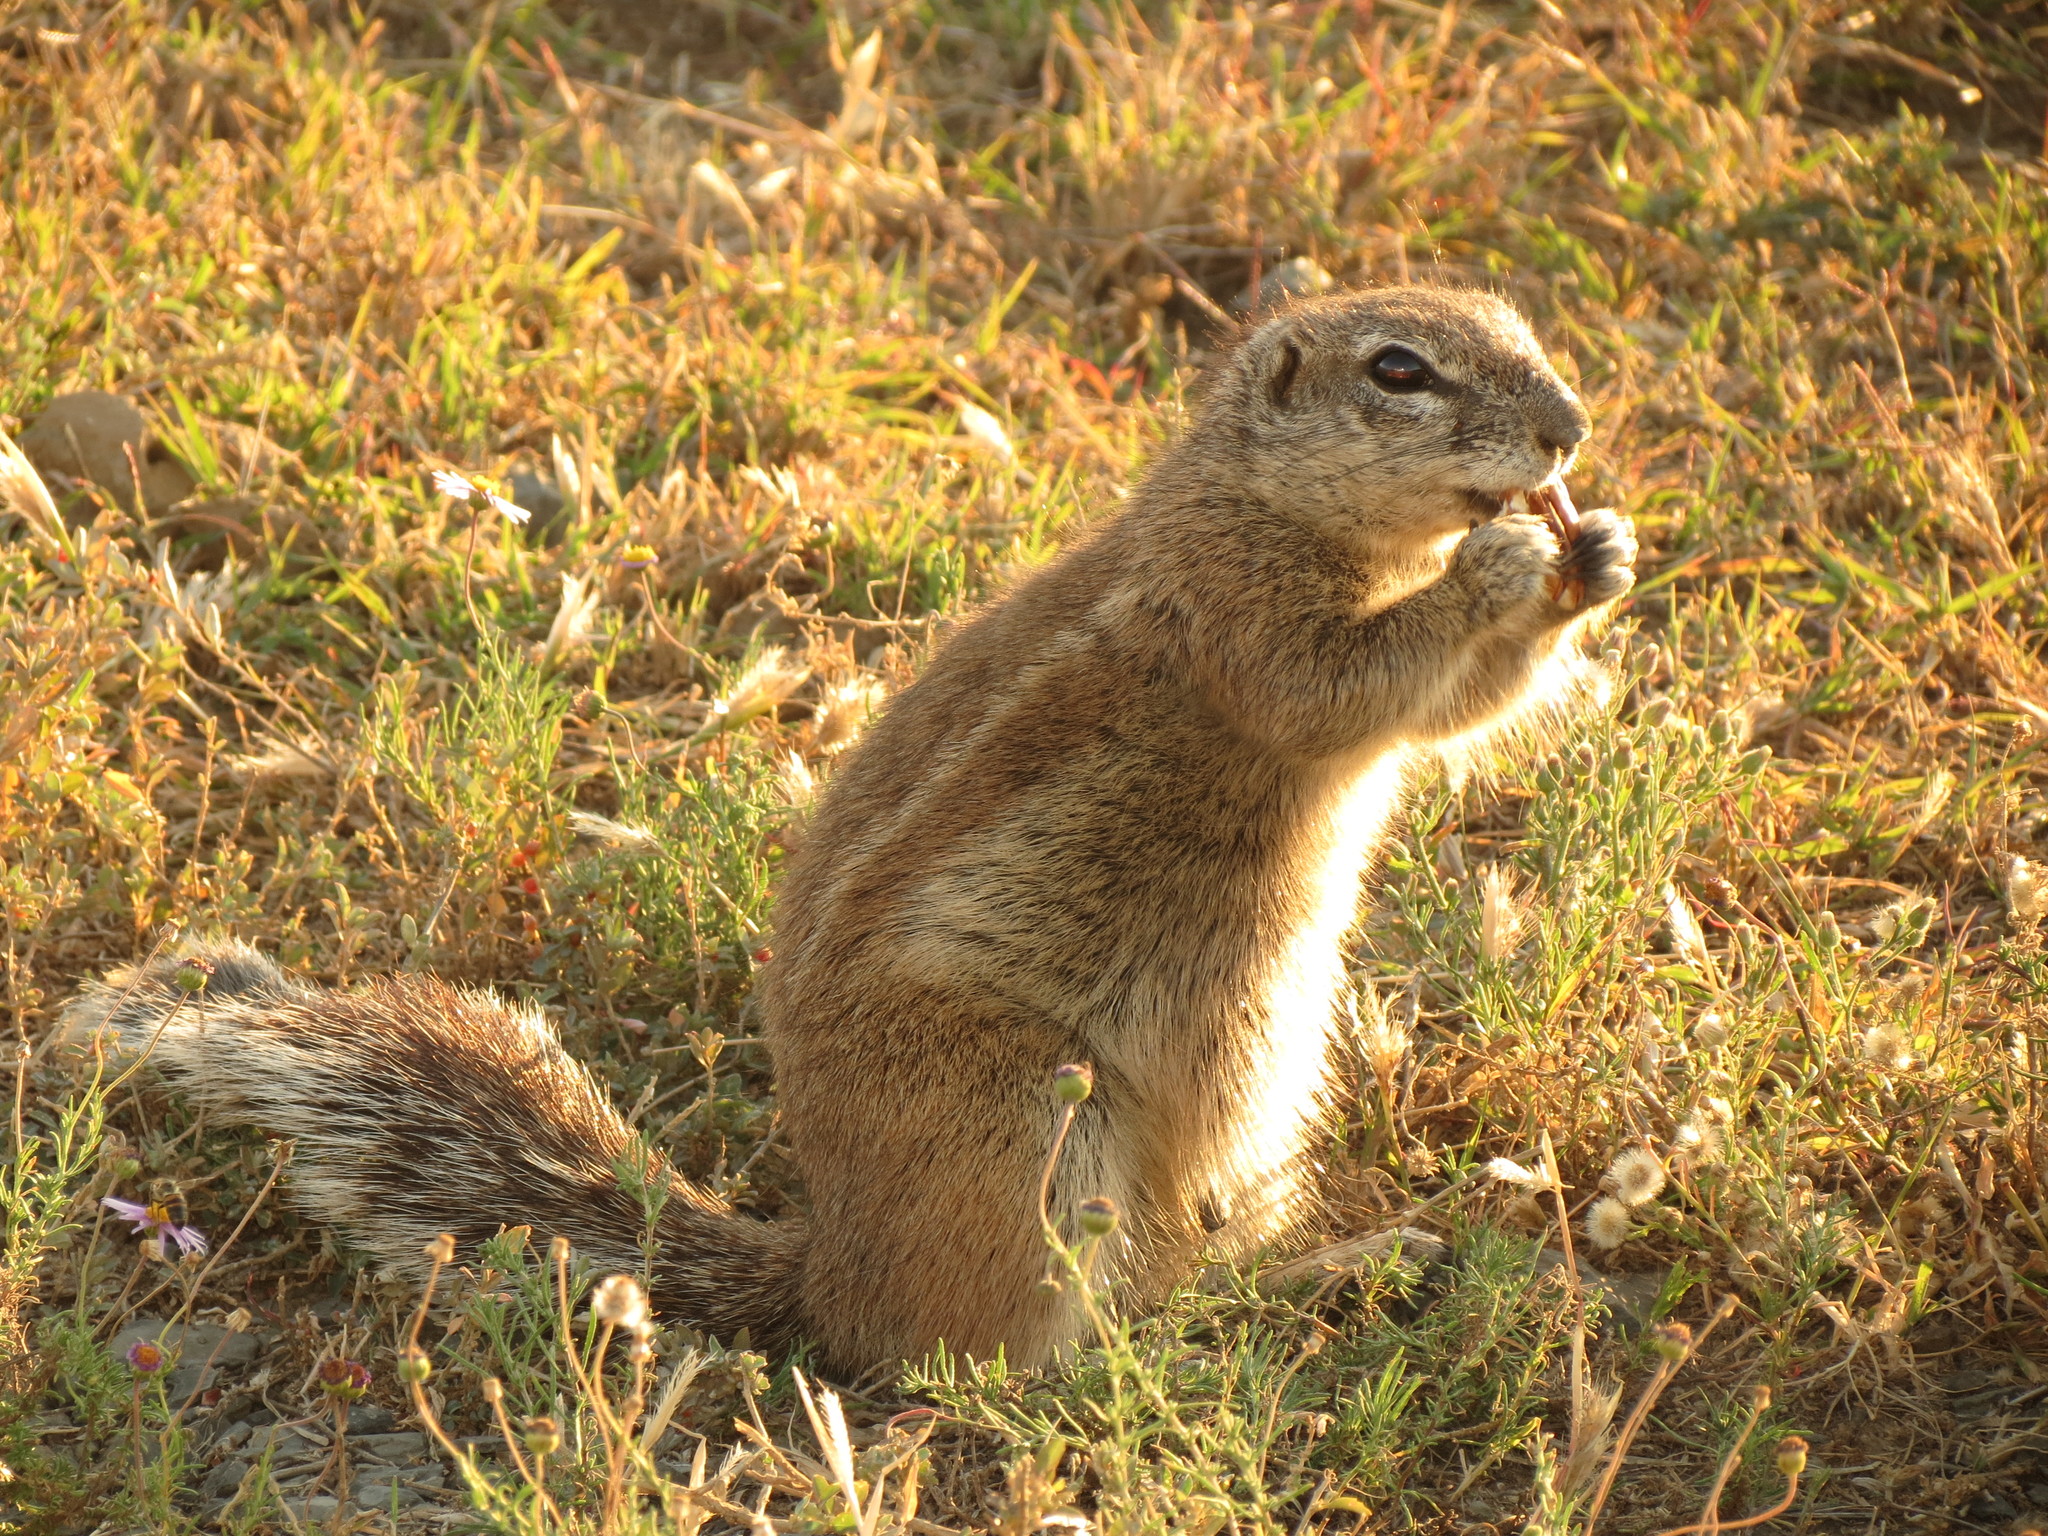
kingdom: Animalia
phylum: Chordata
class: Mammalia
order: Rodentia
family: Sciuridae
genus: Xerus
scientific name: Xerus inauris
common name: South african ground squirrel
